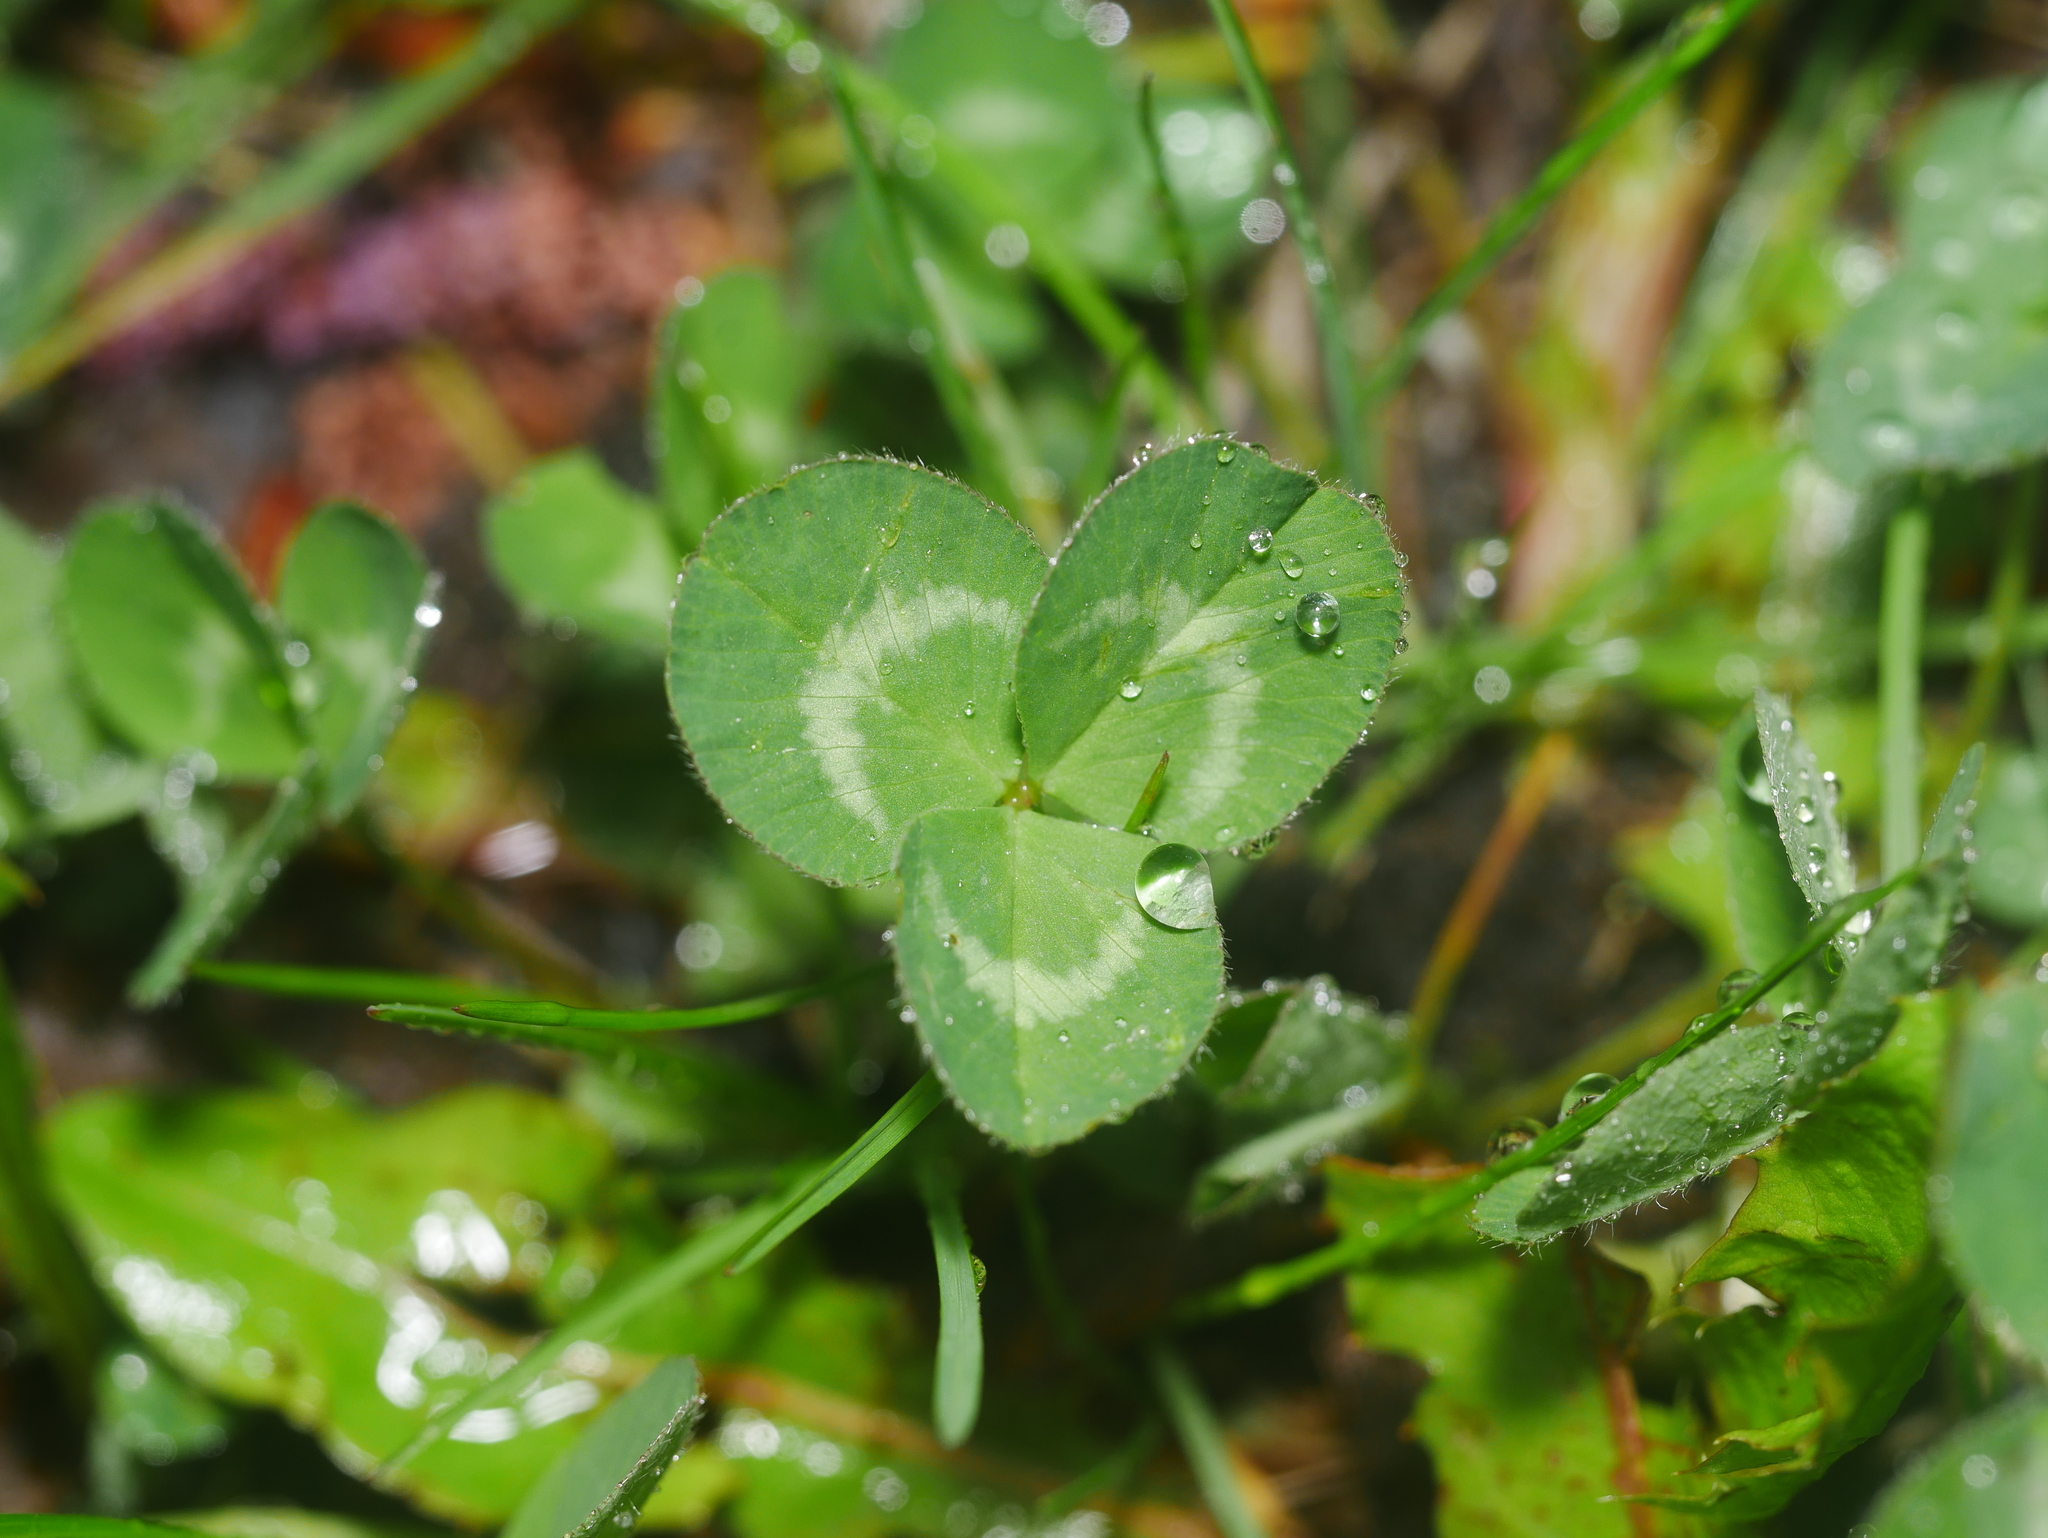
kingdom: Plantae
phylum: Tracheophyta
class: Magnoliopsida
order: Fabales
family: Fabaceae
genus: Trifolium
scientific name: Trifolium repens
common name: White clover
